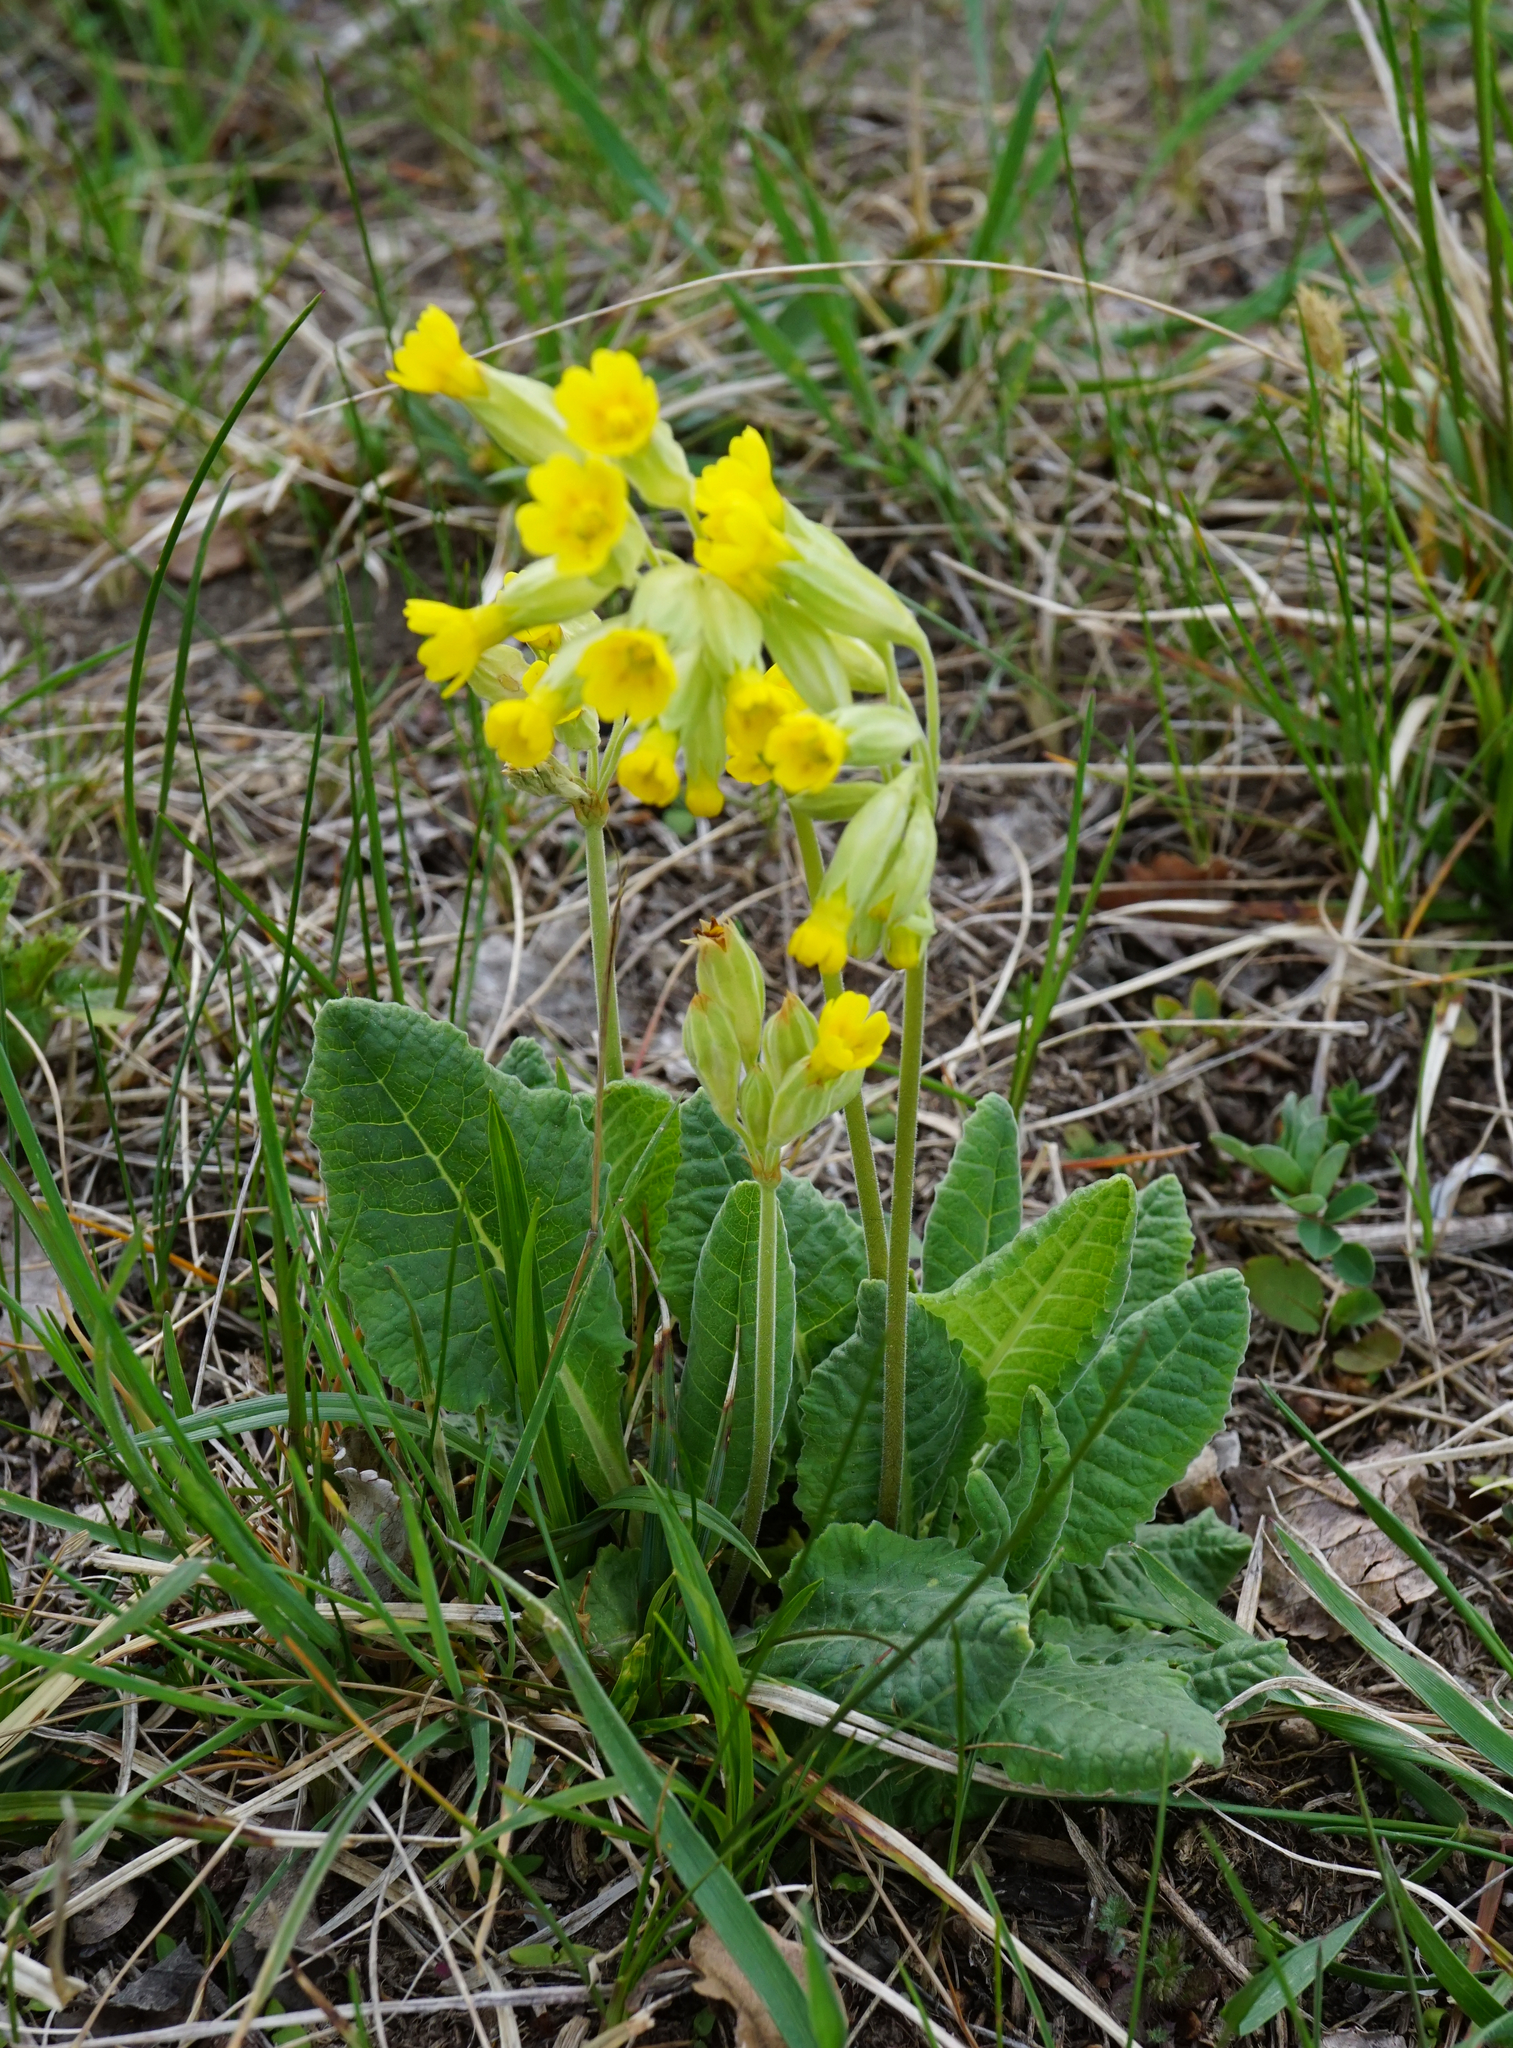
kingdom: Plantae
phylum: Tracheophyta
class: Magnoliopsida
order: Ericales
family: Primulaceae
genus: Primula
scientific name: Primula veris
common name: Cowslip
